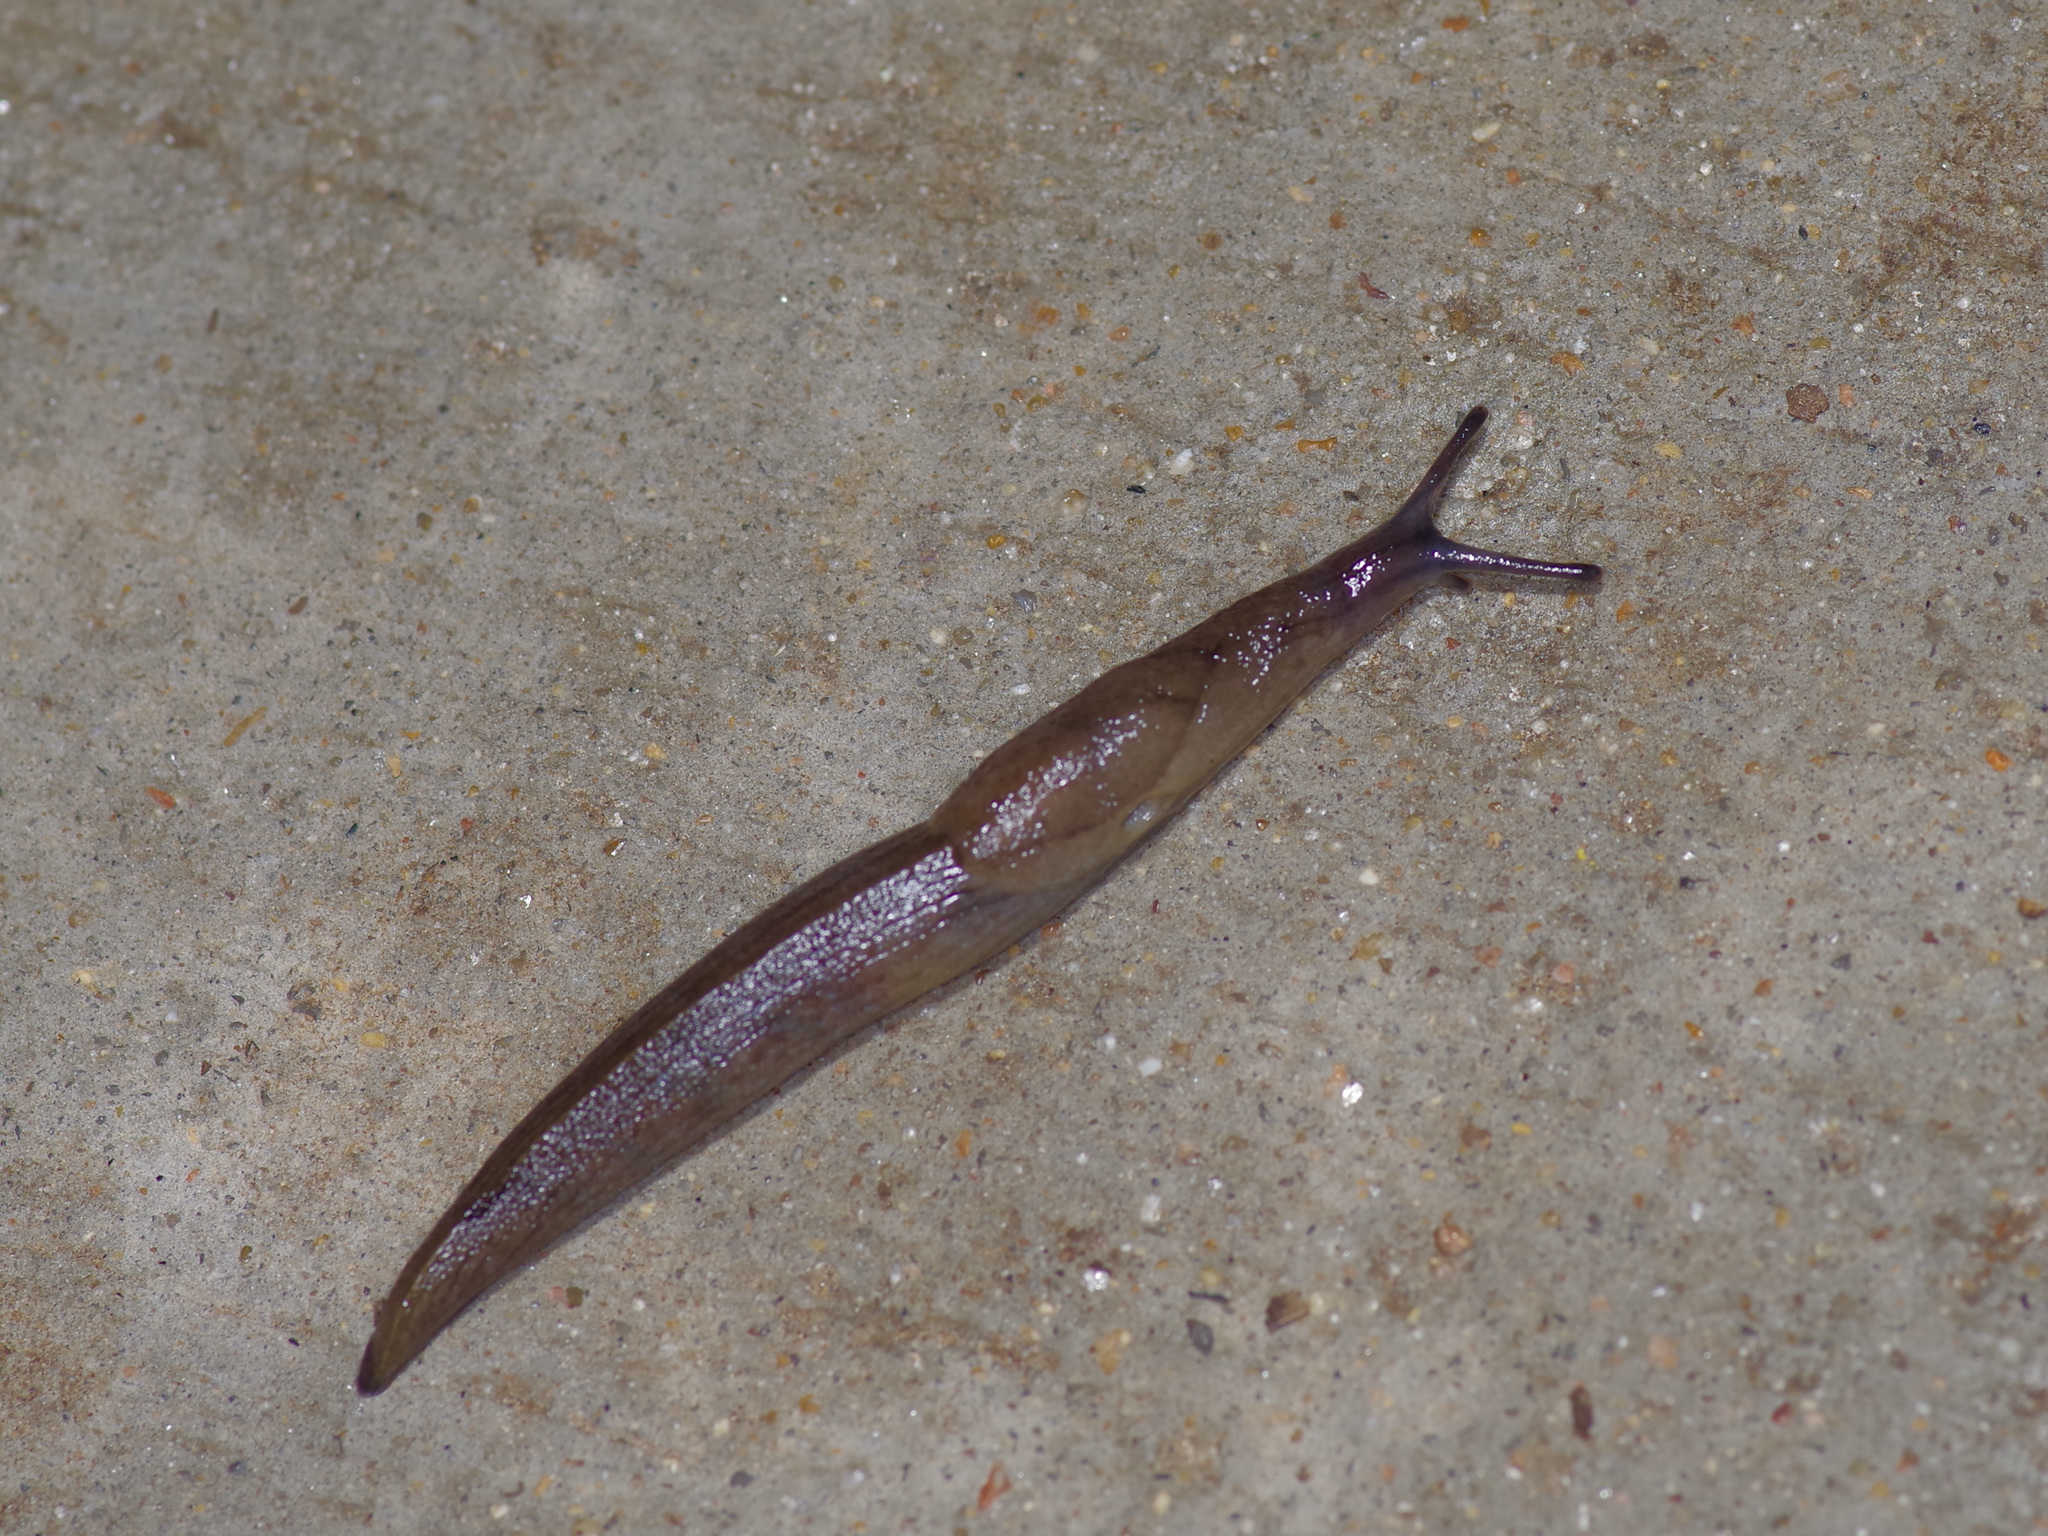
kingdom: Animalia
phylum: Mollusca
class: Gastropoda
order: Stylommatophora
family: Milacidae
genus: Milax
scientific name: Milax gagates
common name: Greenhouse slug
